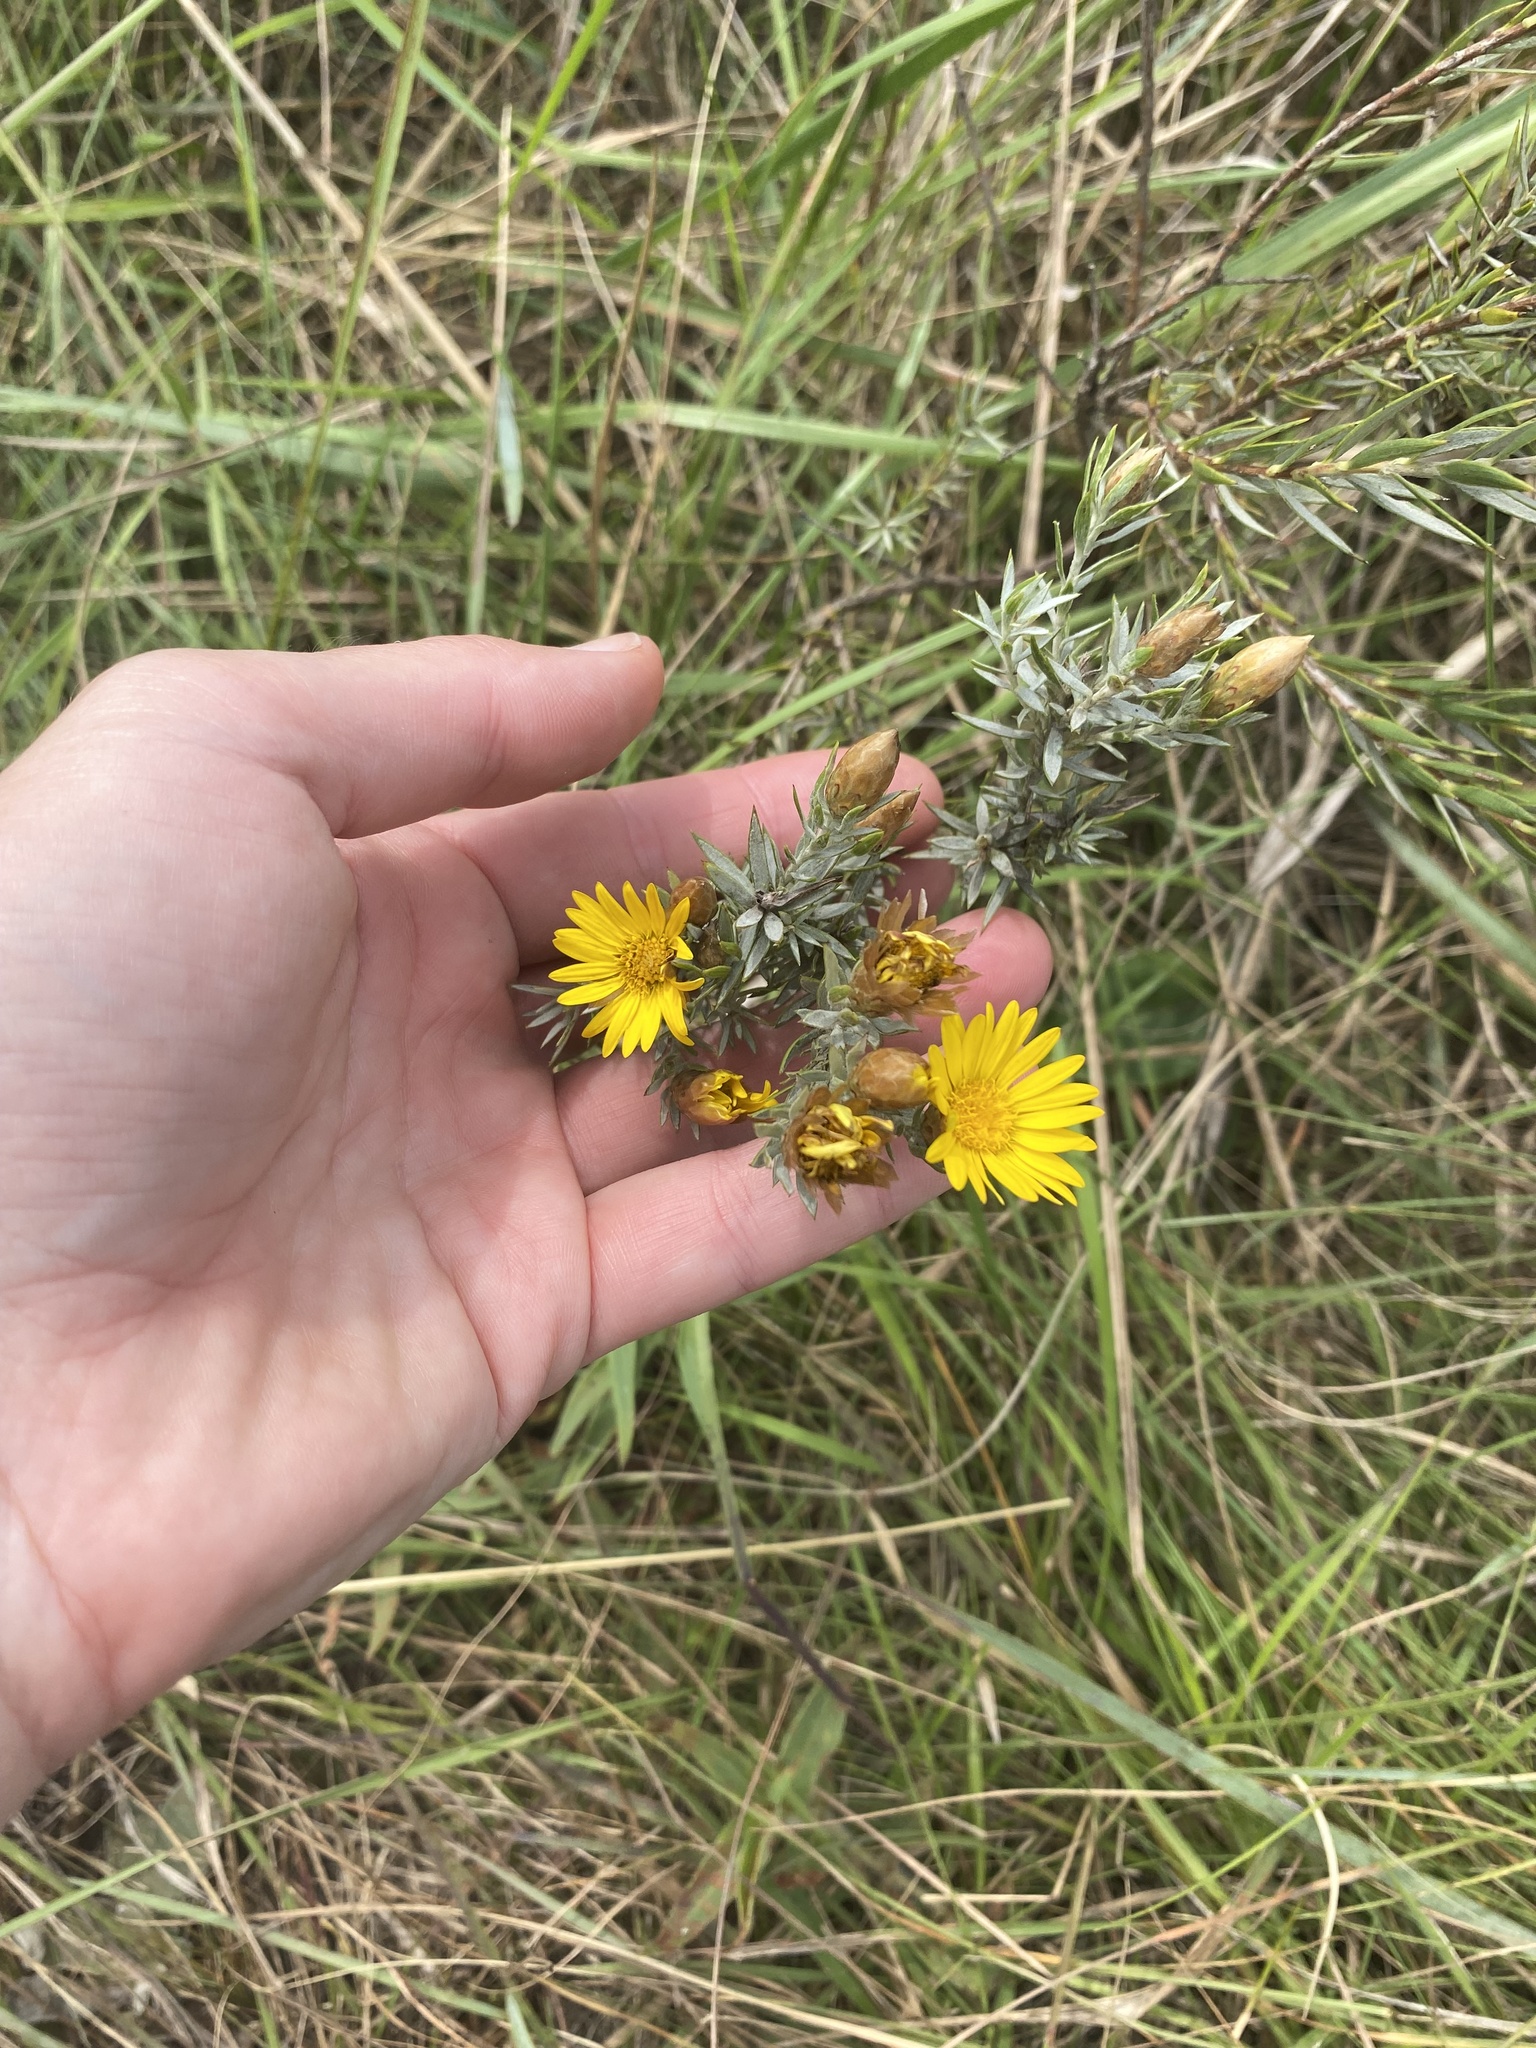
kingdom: Plantae
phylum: Tracheophyta
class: Magnoliopsida
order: Asterales
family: Asteraceae
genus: Oedera
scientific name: Oedera pungens
